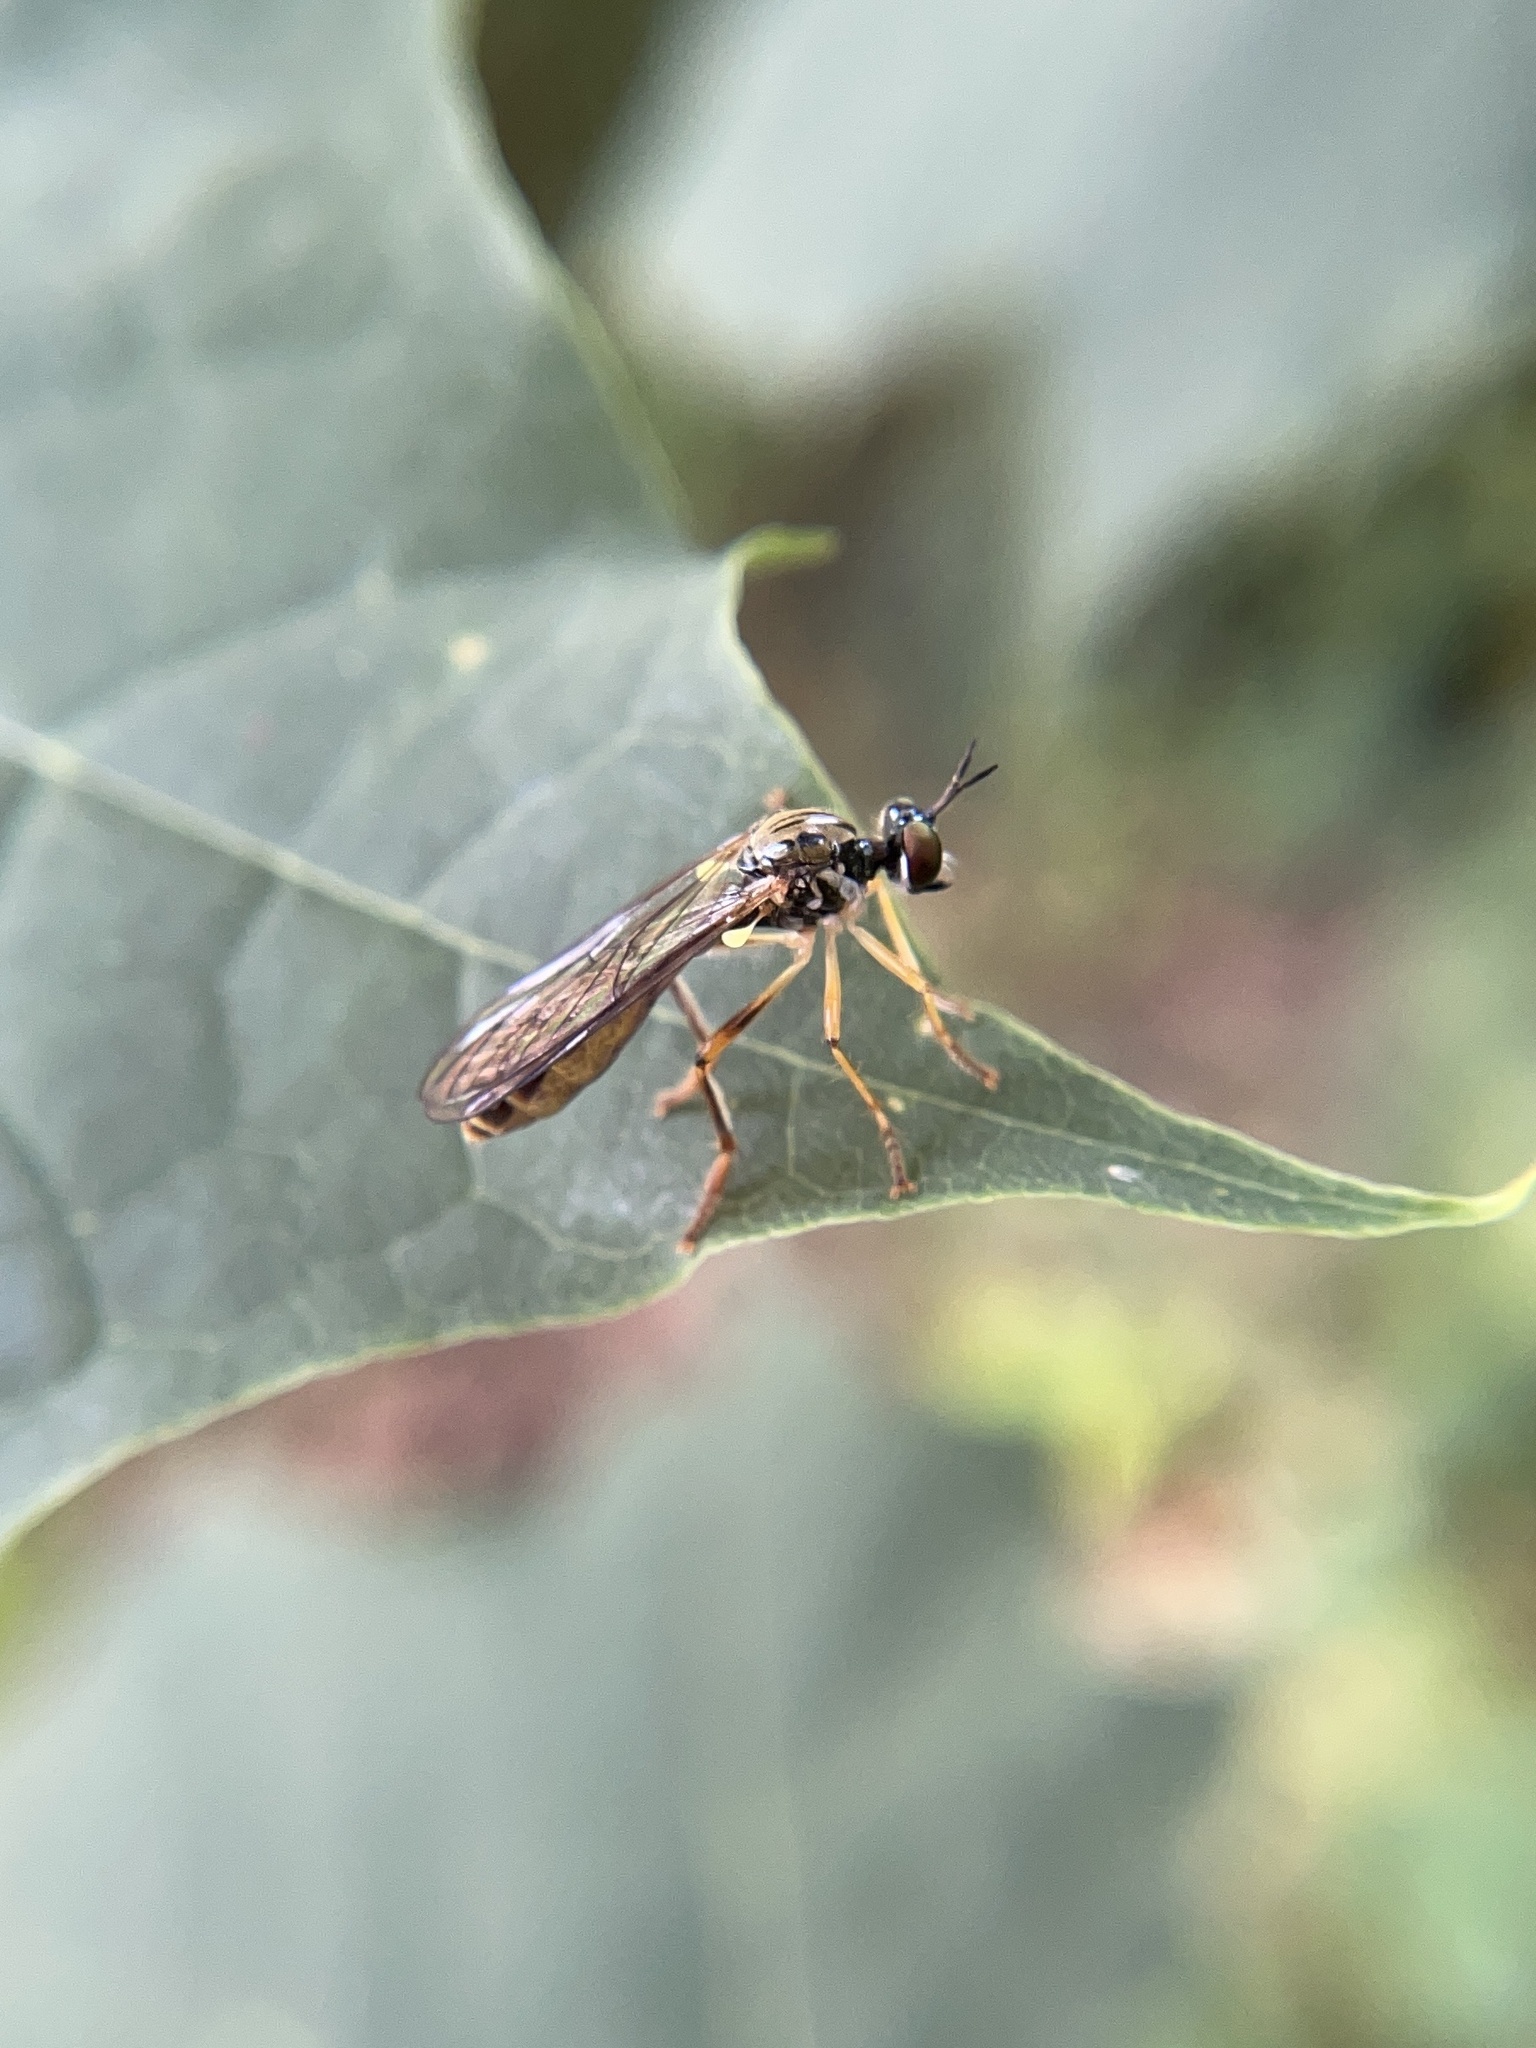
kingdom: Animalia
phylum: Arthropoda
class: Insecta
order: Diptera
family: Asilidae
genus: Dioctria
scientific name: Dioctria linearis
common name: Small yellow-legged robberfly
